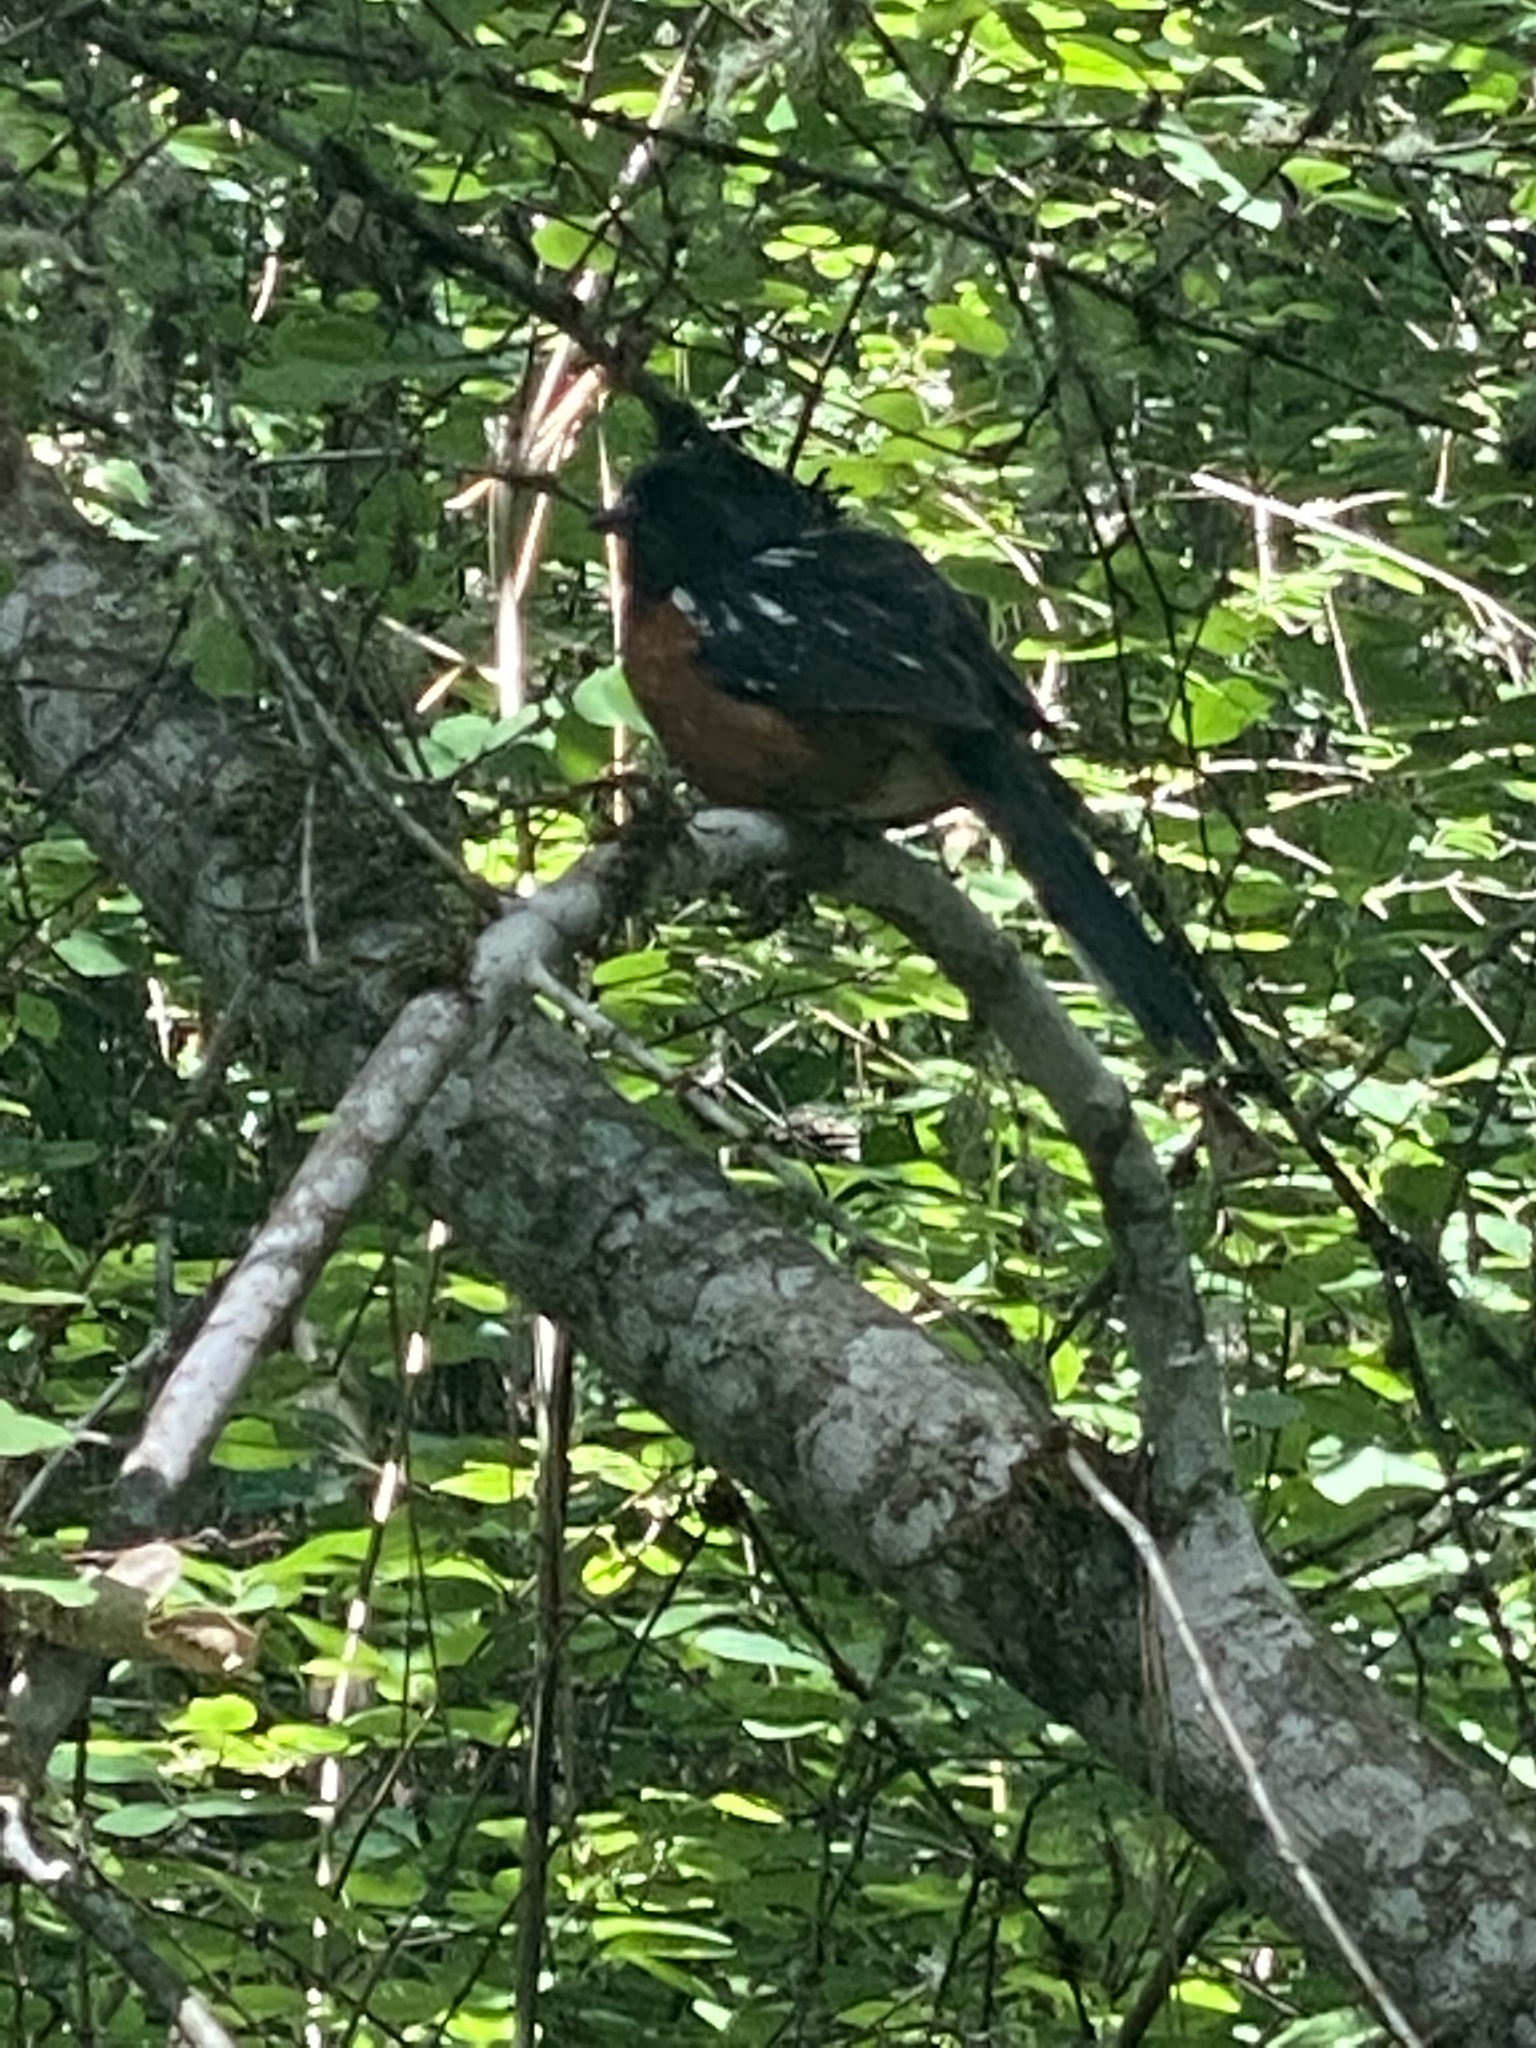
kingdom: Animalia
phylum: Chordata
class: Aves
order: Passeriformes
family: Passerellidae
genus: Pipilo
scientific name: Pipilo maculatus
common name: Spotted towhee
